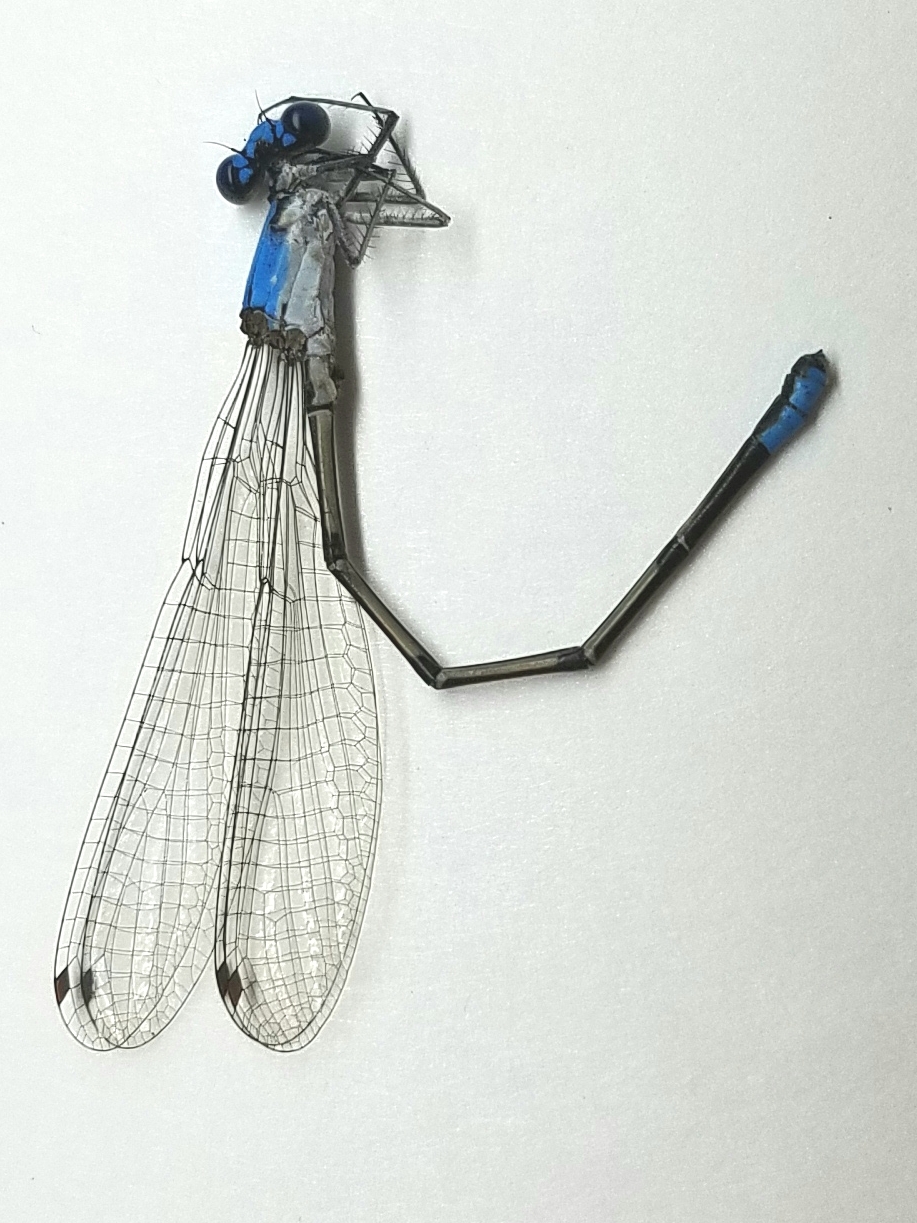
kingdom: Animalia
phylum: Arthropoda
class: Insecta
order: Odonata
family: Coenagrionidae
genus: Argia
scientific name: Argia apicalis
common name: Blue-fronted dancer
